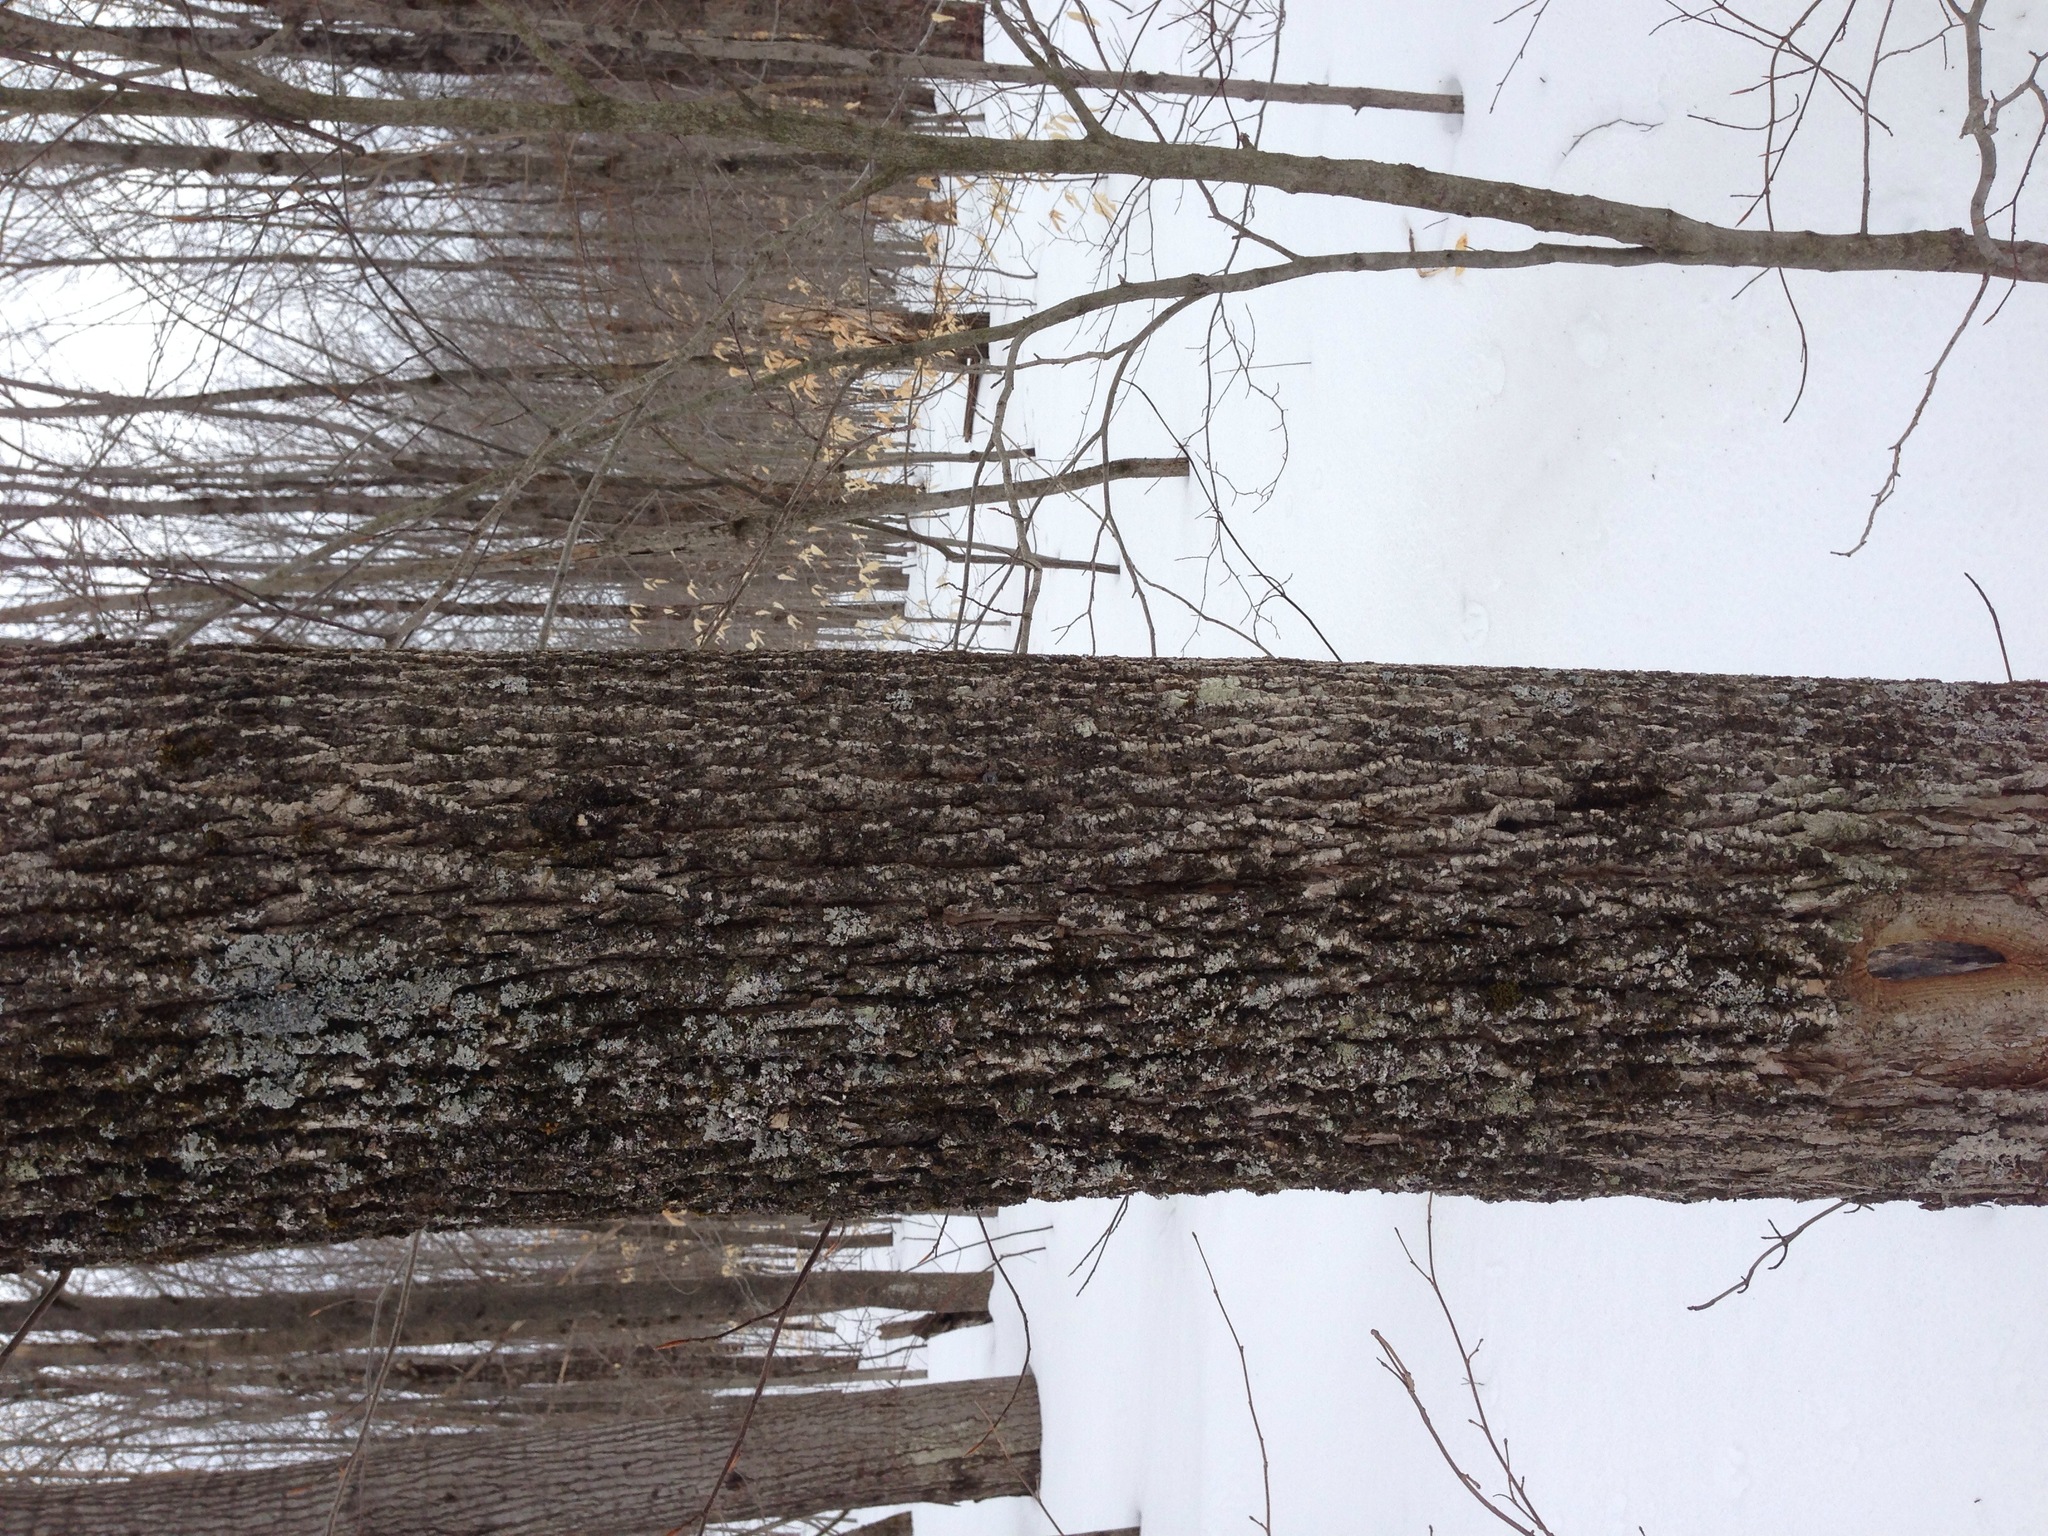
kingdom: Plantae
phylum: Tracheophyta
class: Magnoliopsida
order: Lamiales
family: Oleaceae
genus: Fraxinus
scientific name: Fraxinus americana
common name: White ash
